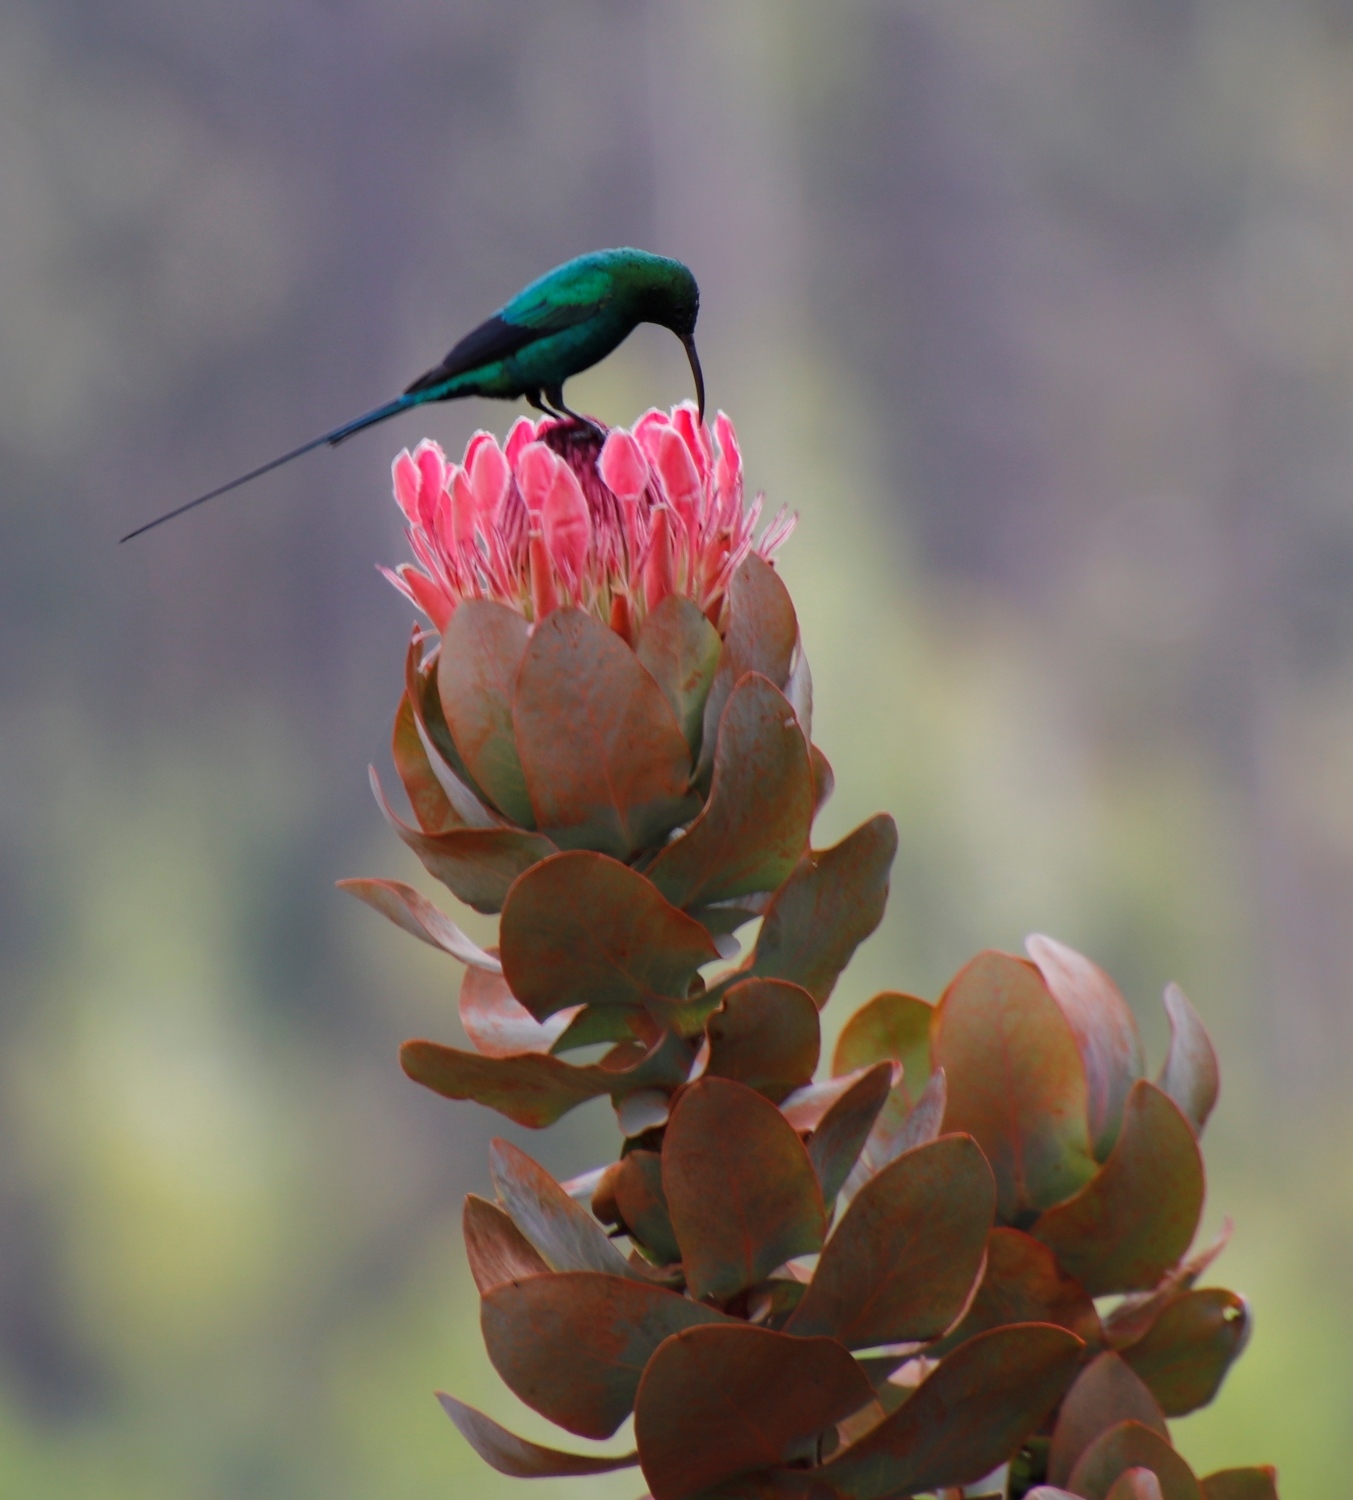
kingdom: Animalia
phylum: Chordata
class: Aves
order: Passeriformes
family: Nectariniidae
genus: Nectarinia
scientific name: Nectarinia famosa
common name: Malachite sunbird
